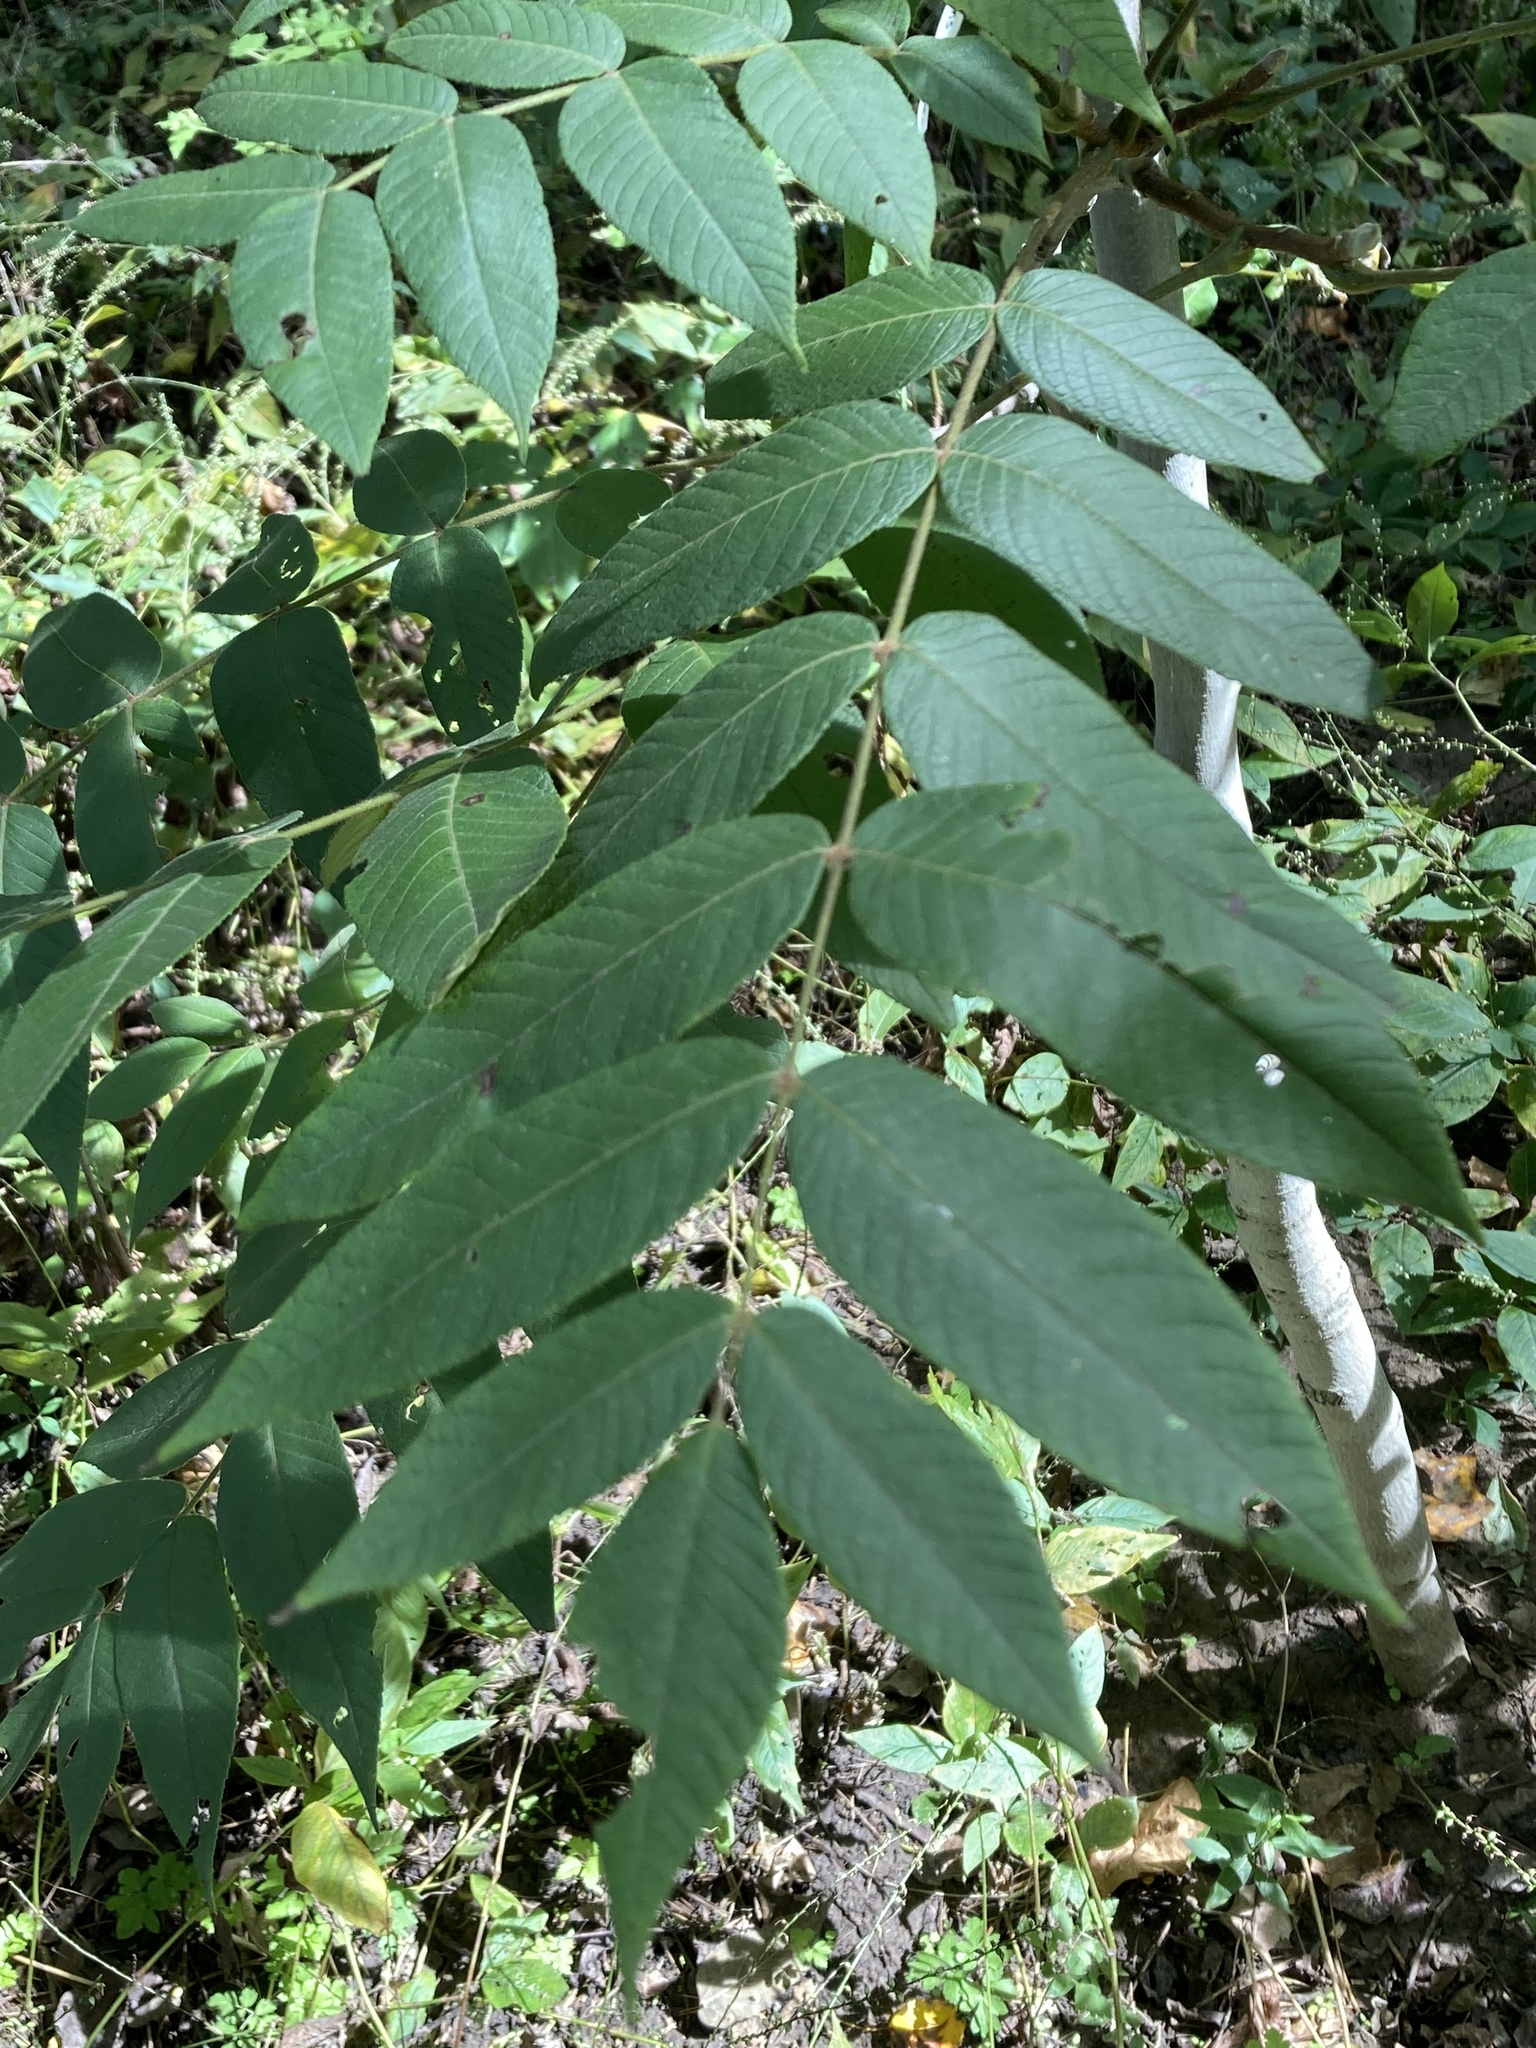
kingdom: Plantae
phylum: Tracheophyta
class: Magnoliopsida
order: Fagales
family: Juglandaceae
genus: Juglans
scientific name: Juglans cinerea
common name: Butternut
